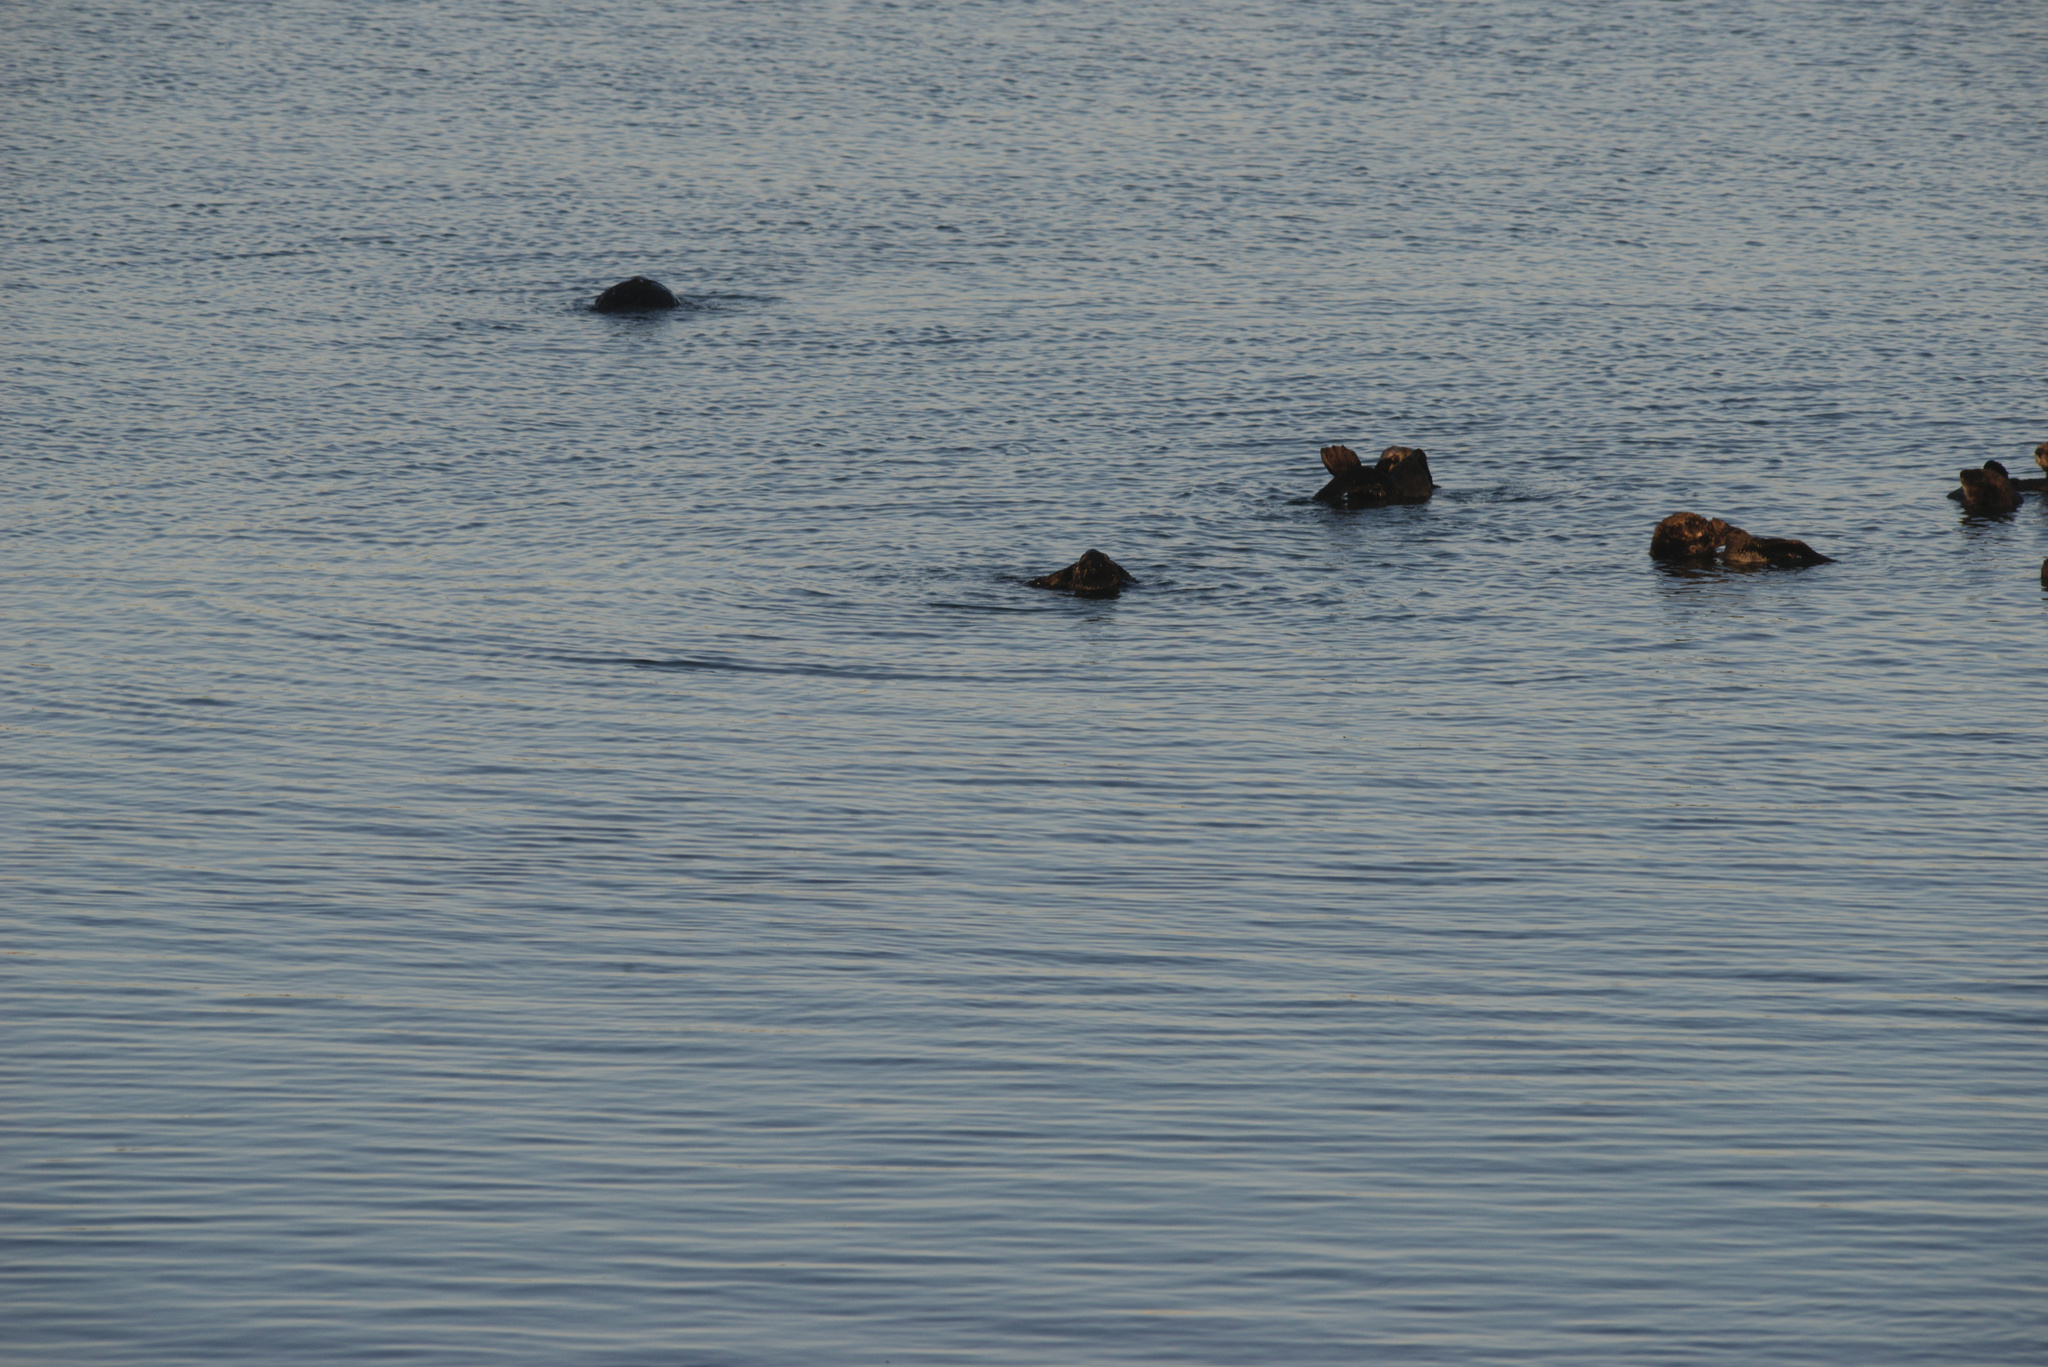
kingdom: Animalia
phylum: Chordata
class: Mammalia
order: Carnivora
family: Mustelidae
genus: Enhydra
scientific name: Enhydra lutris
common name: Sea otter
